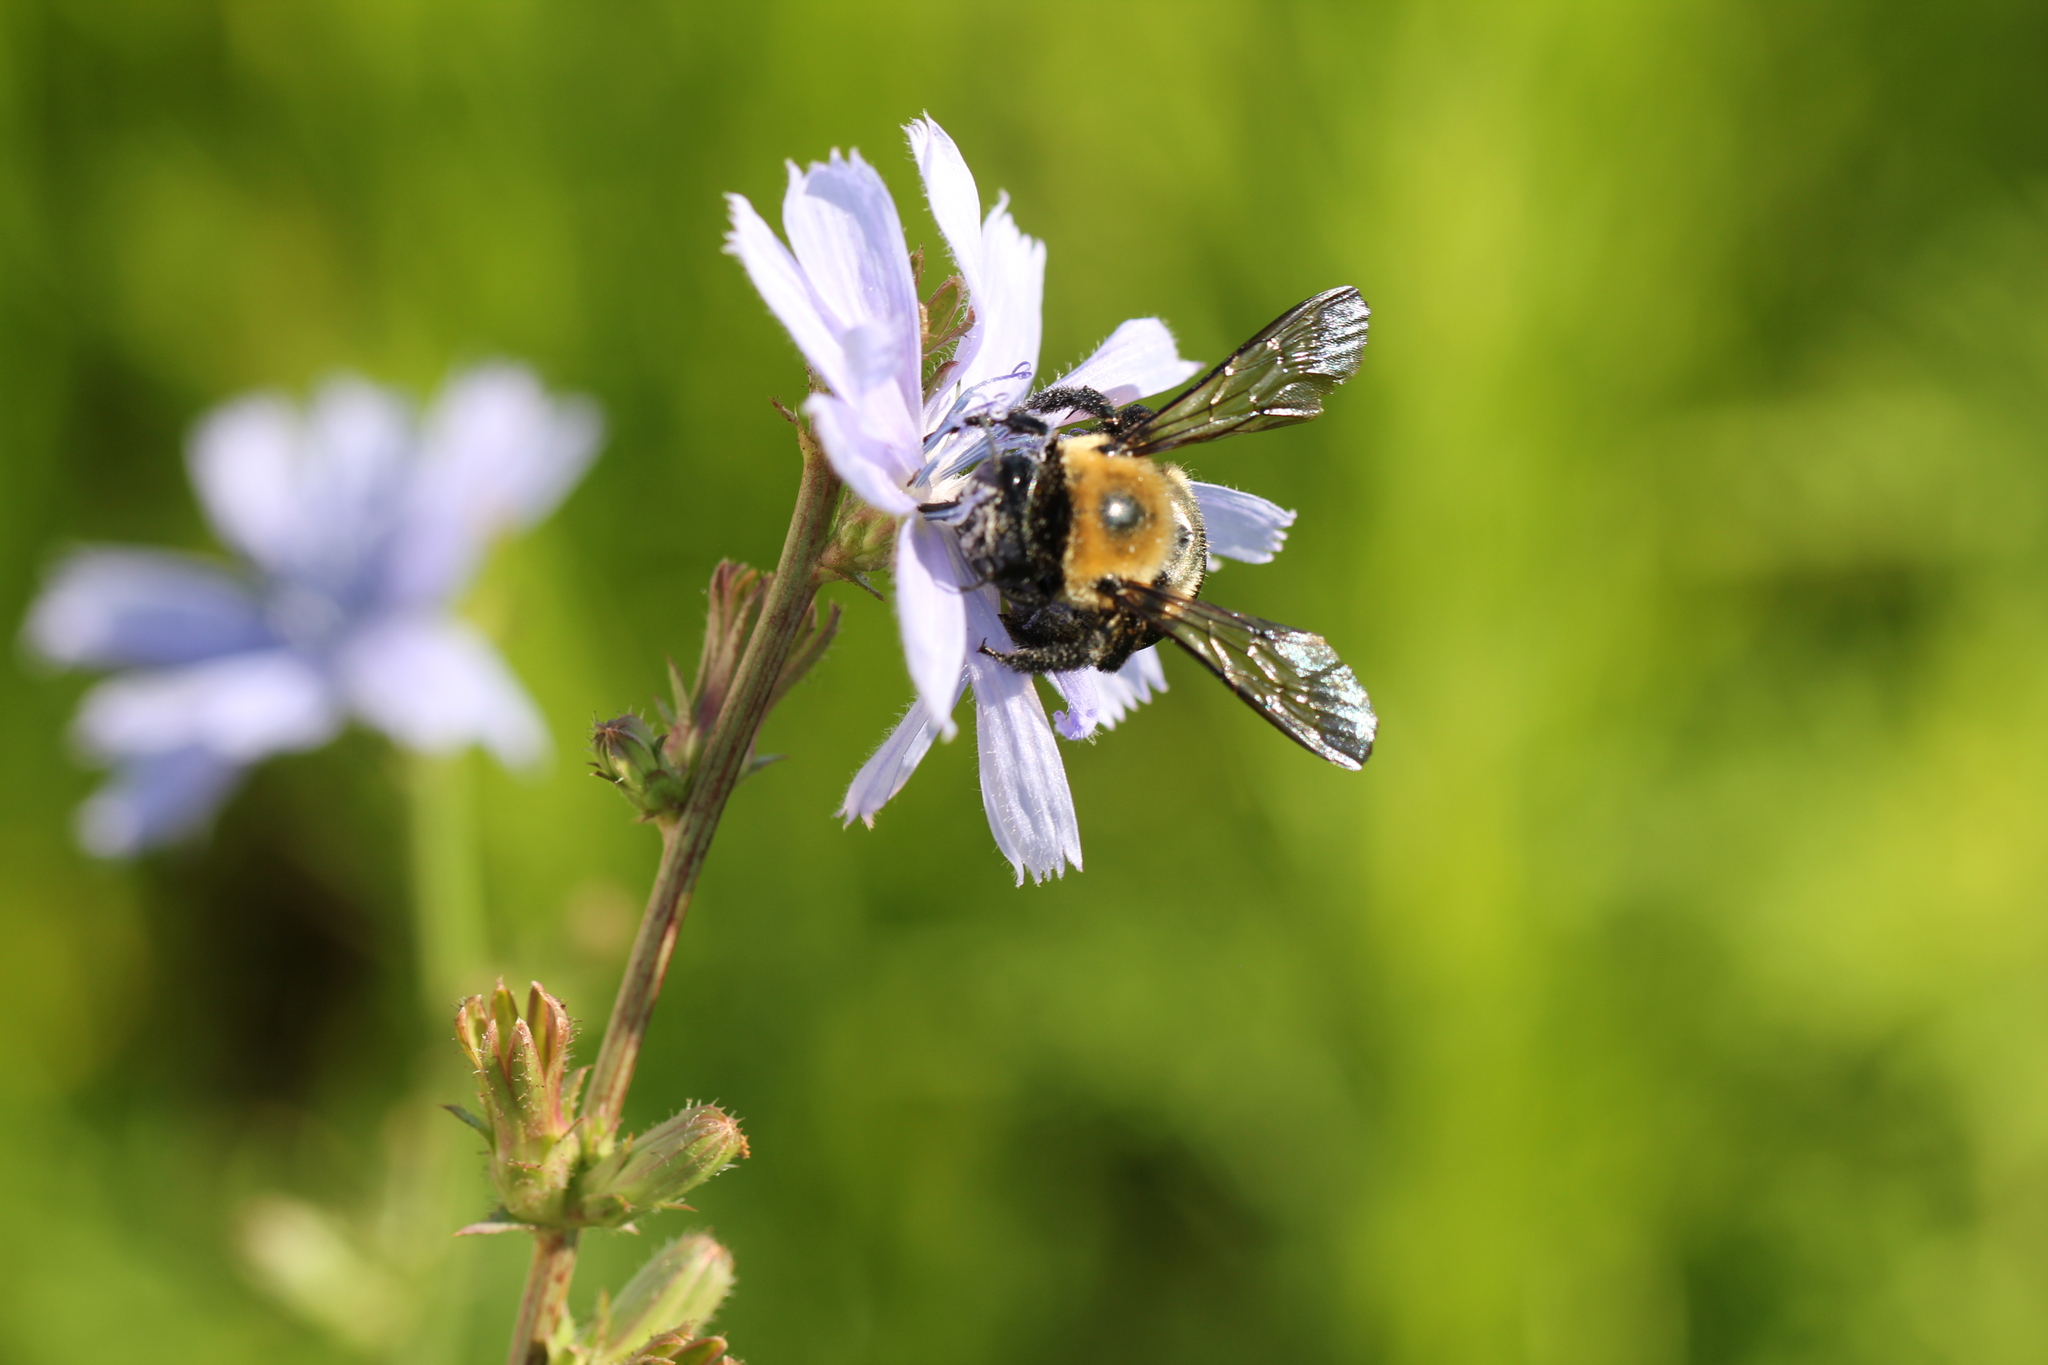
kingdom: Animalia
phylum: Arthropoda
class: Insecta
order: Hymenoptera
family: Apidae
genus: Xylocopa
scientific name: Xylocopa virginica
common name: Carpenter bee
